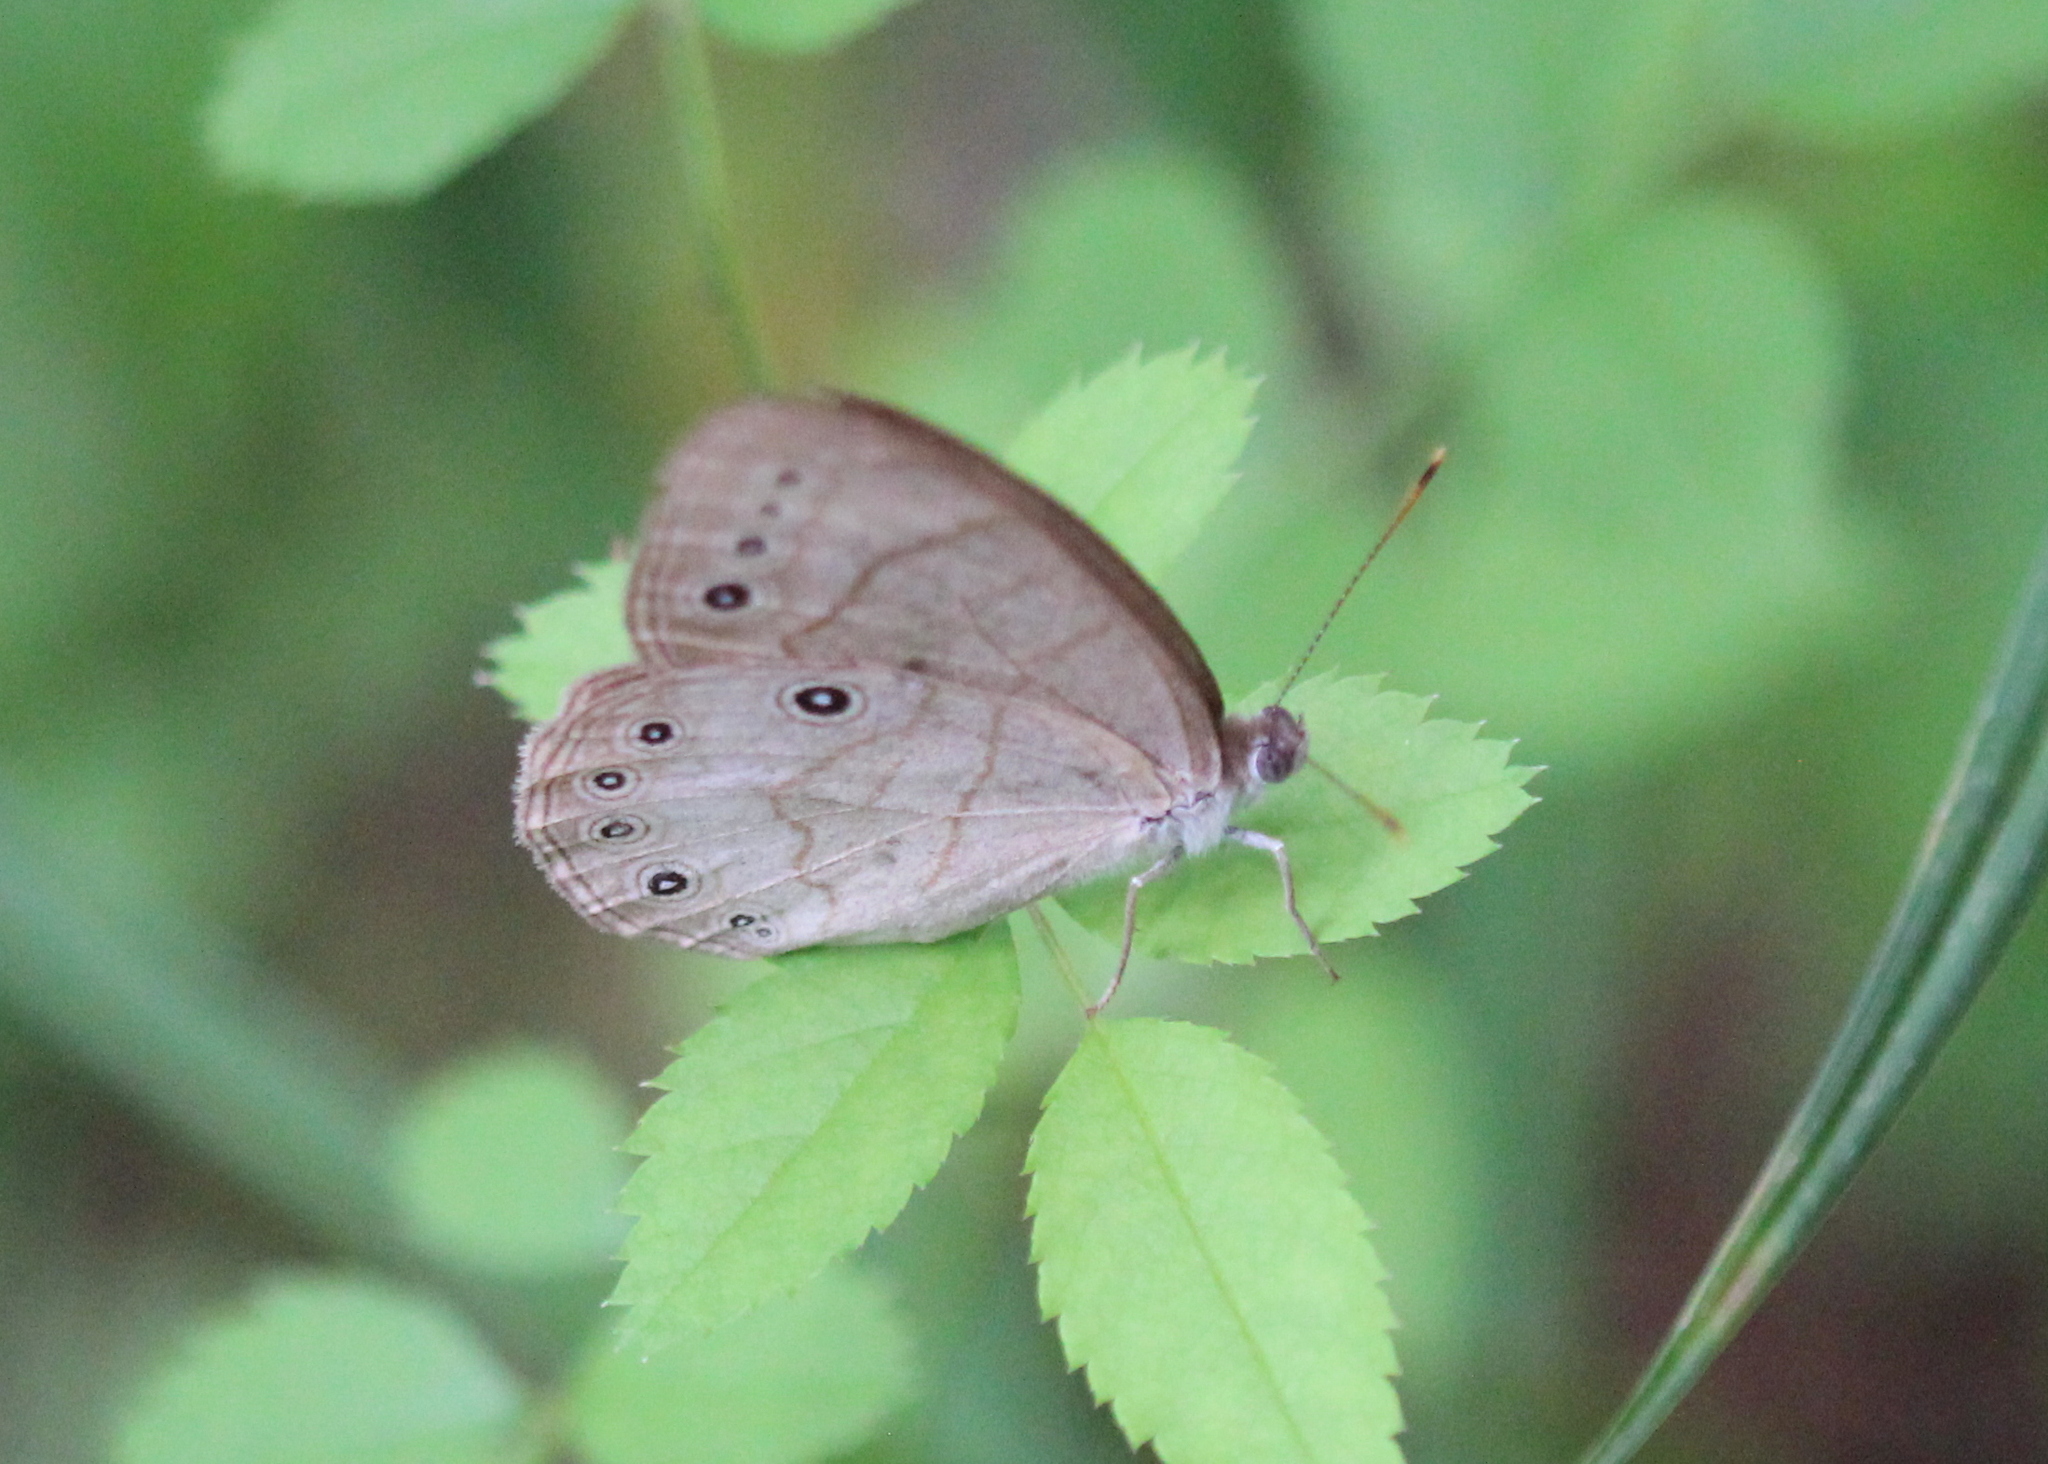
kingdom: Animalia
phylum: Arthropoda
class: Insecta
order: Lepidoptera
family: Nymphalidae
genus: Lethe
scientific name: Lethe eurydice
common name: Eyed brown
